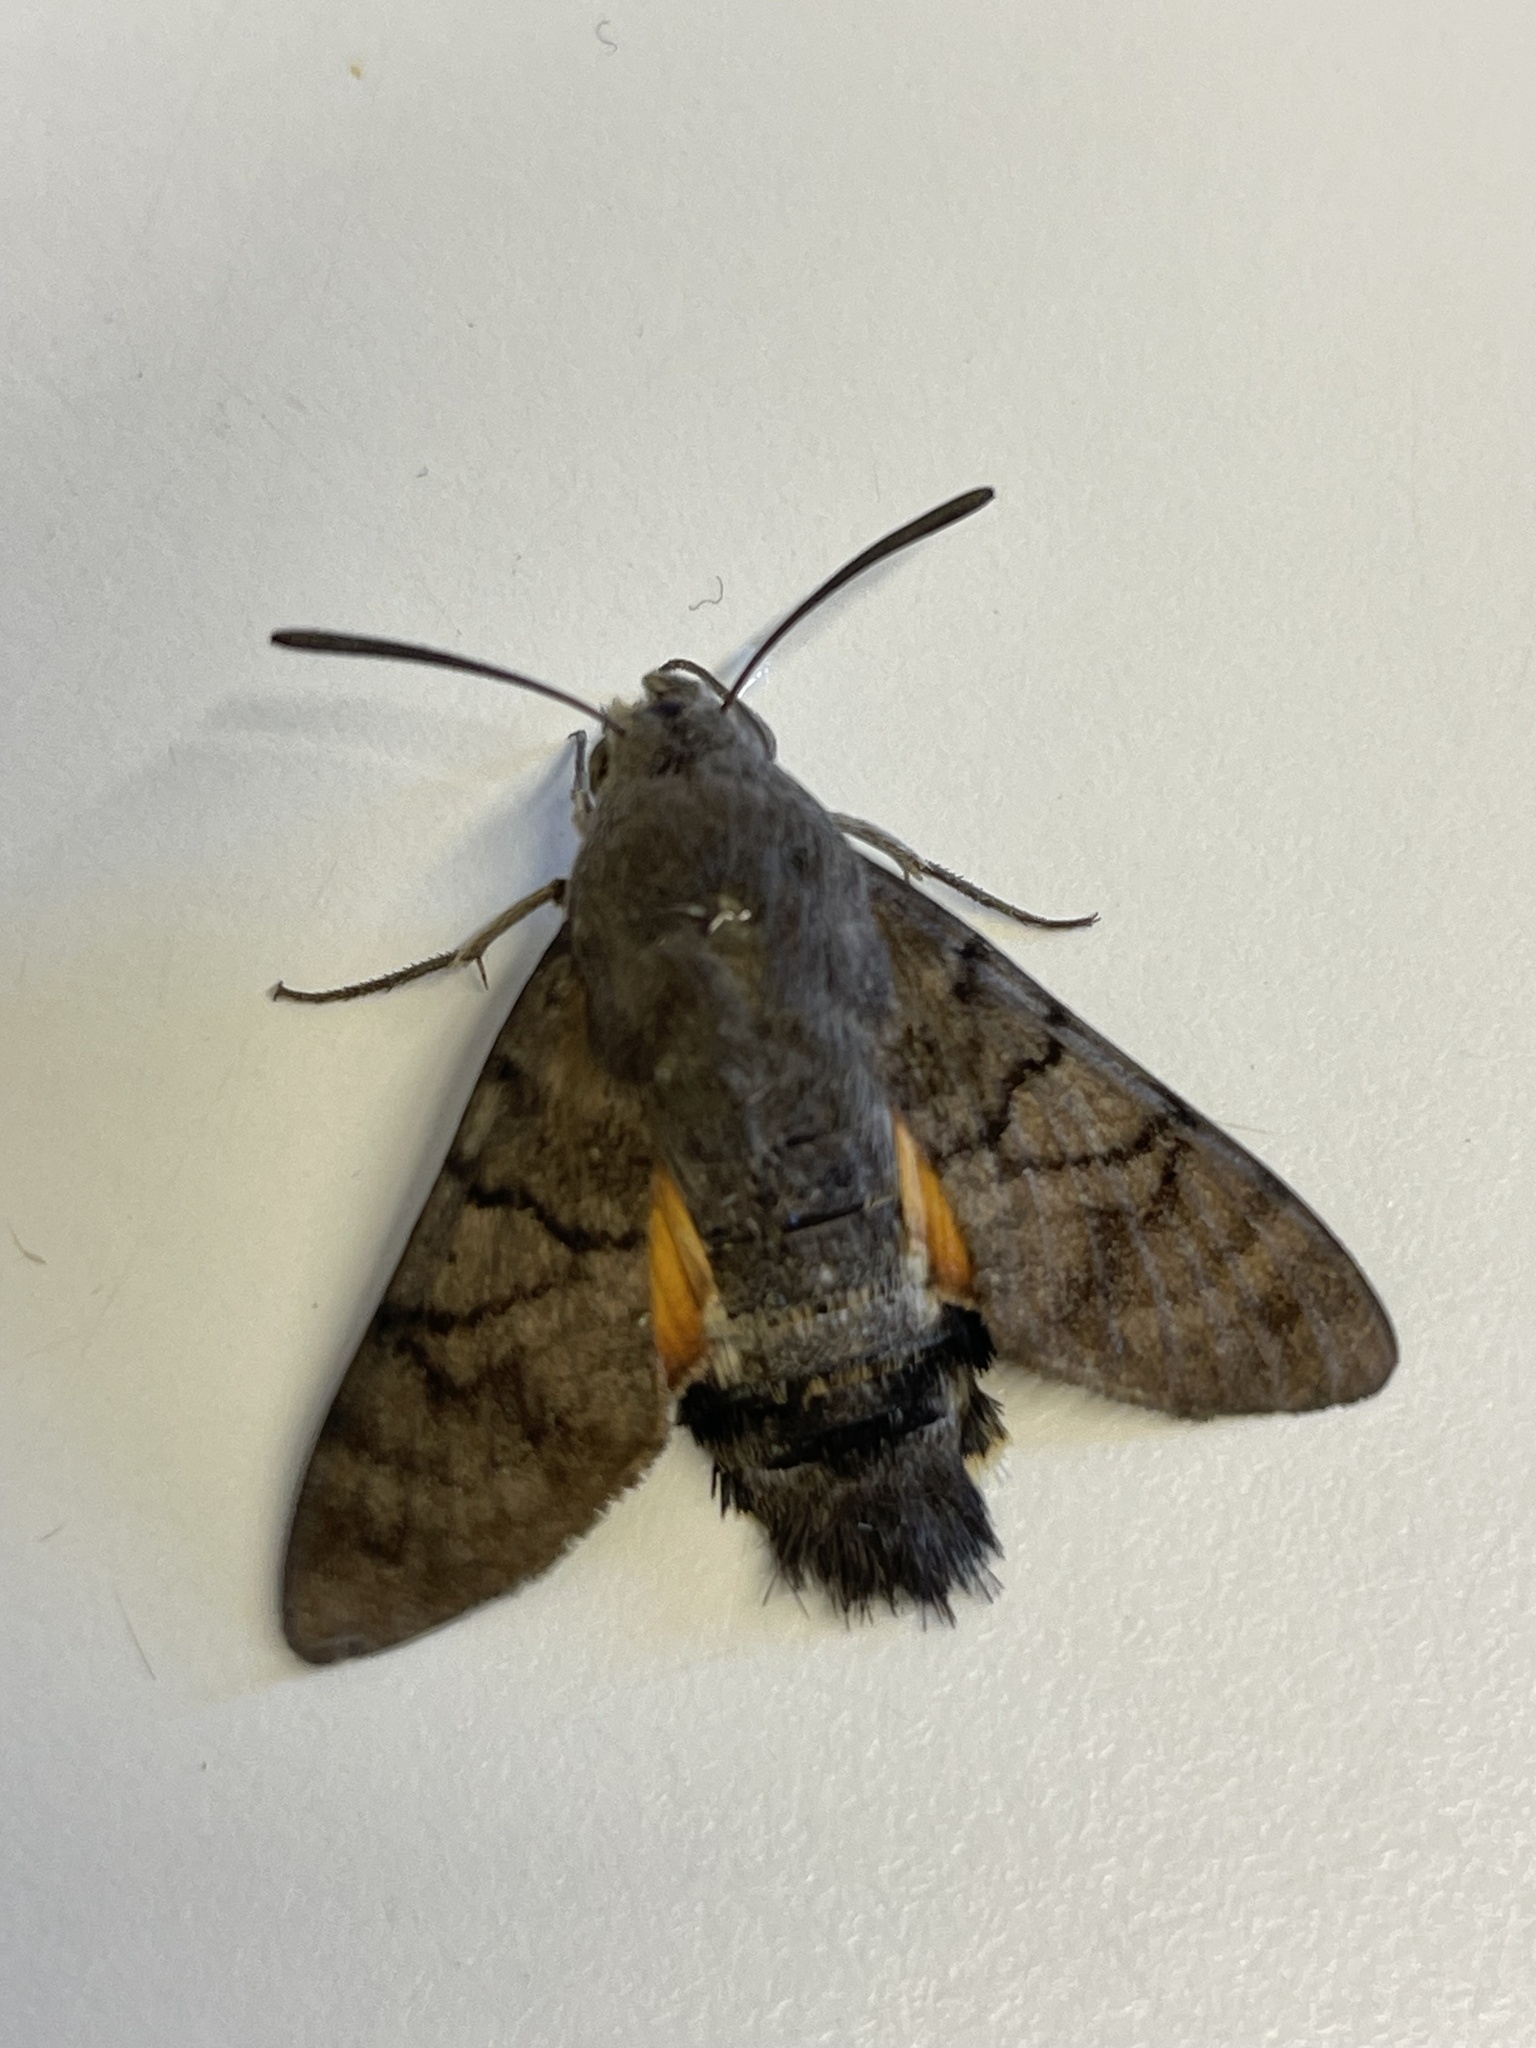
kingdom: Animalia
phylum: Arthropoda
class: Insecta
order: Lepidoptera
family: Sphingidae
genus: Macroglossum
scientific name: Macroglossum stellatarum
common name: Humming-bird hawk-moth
